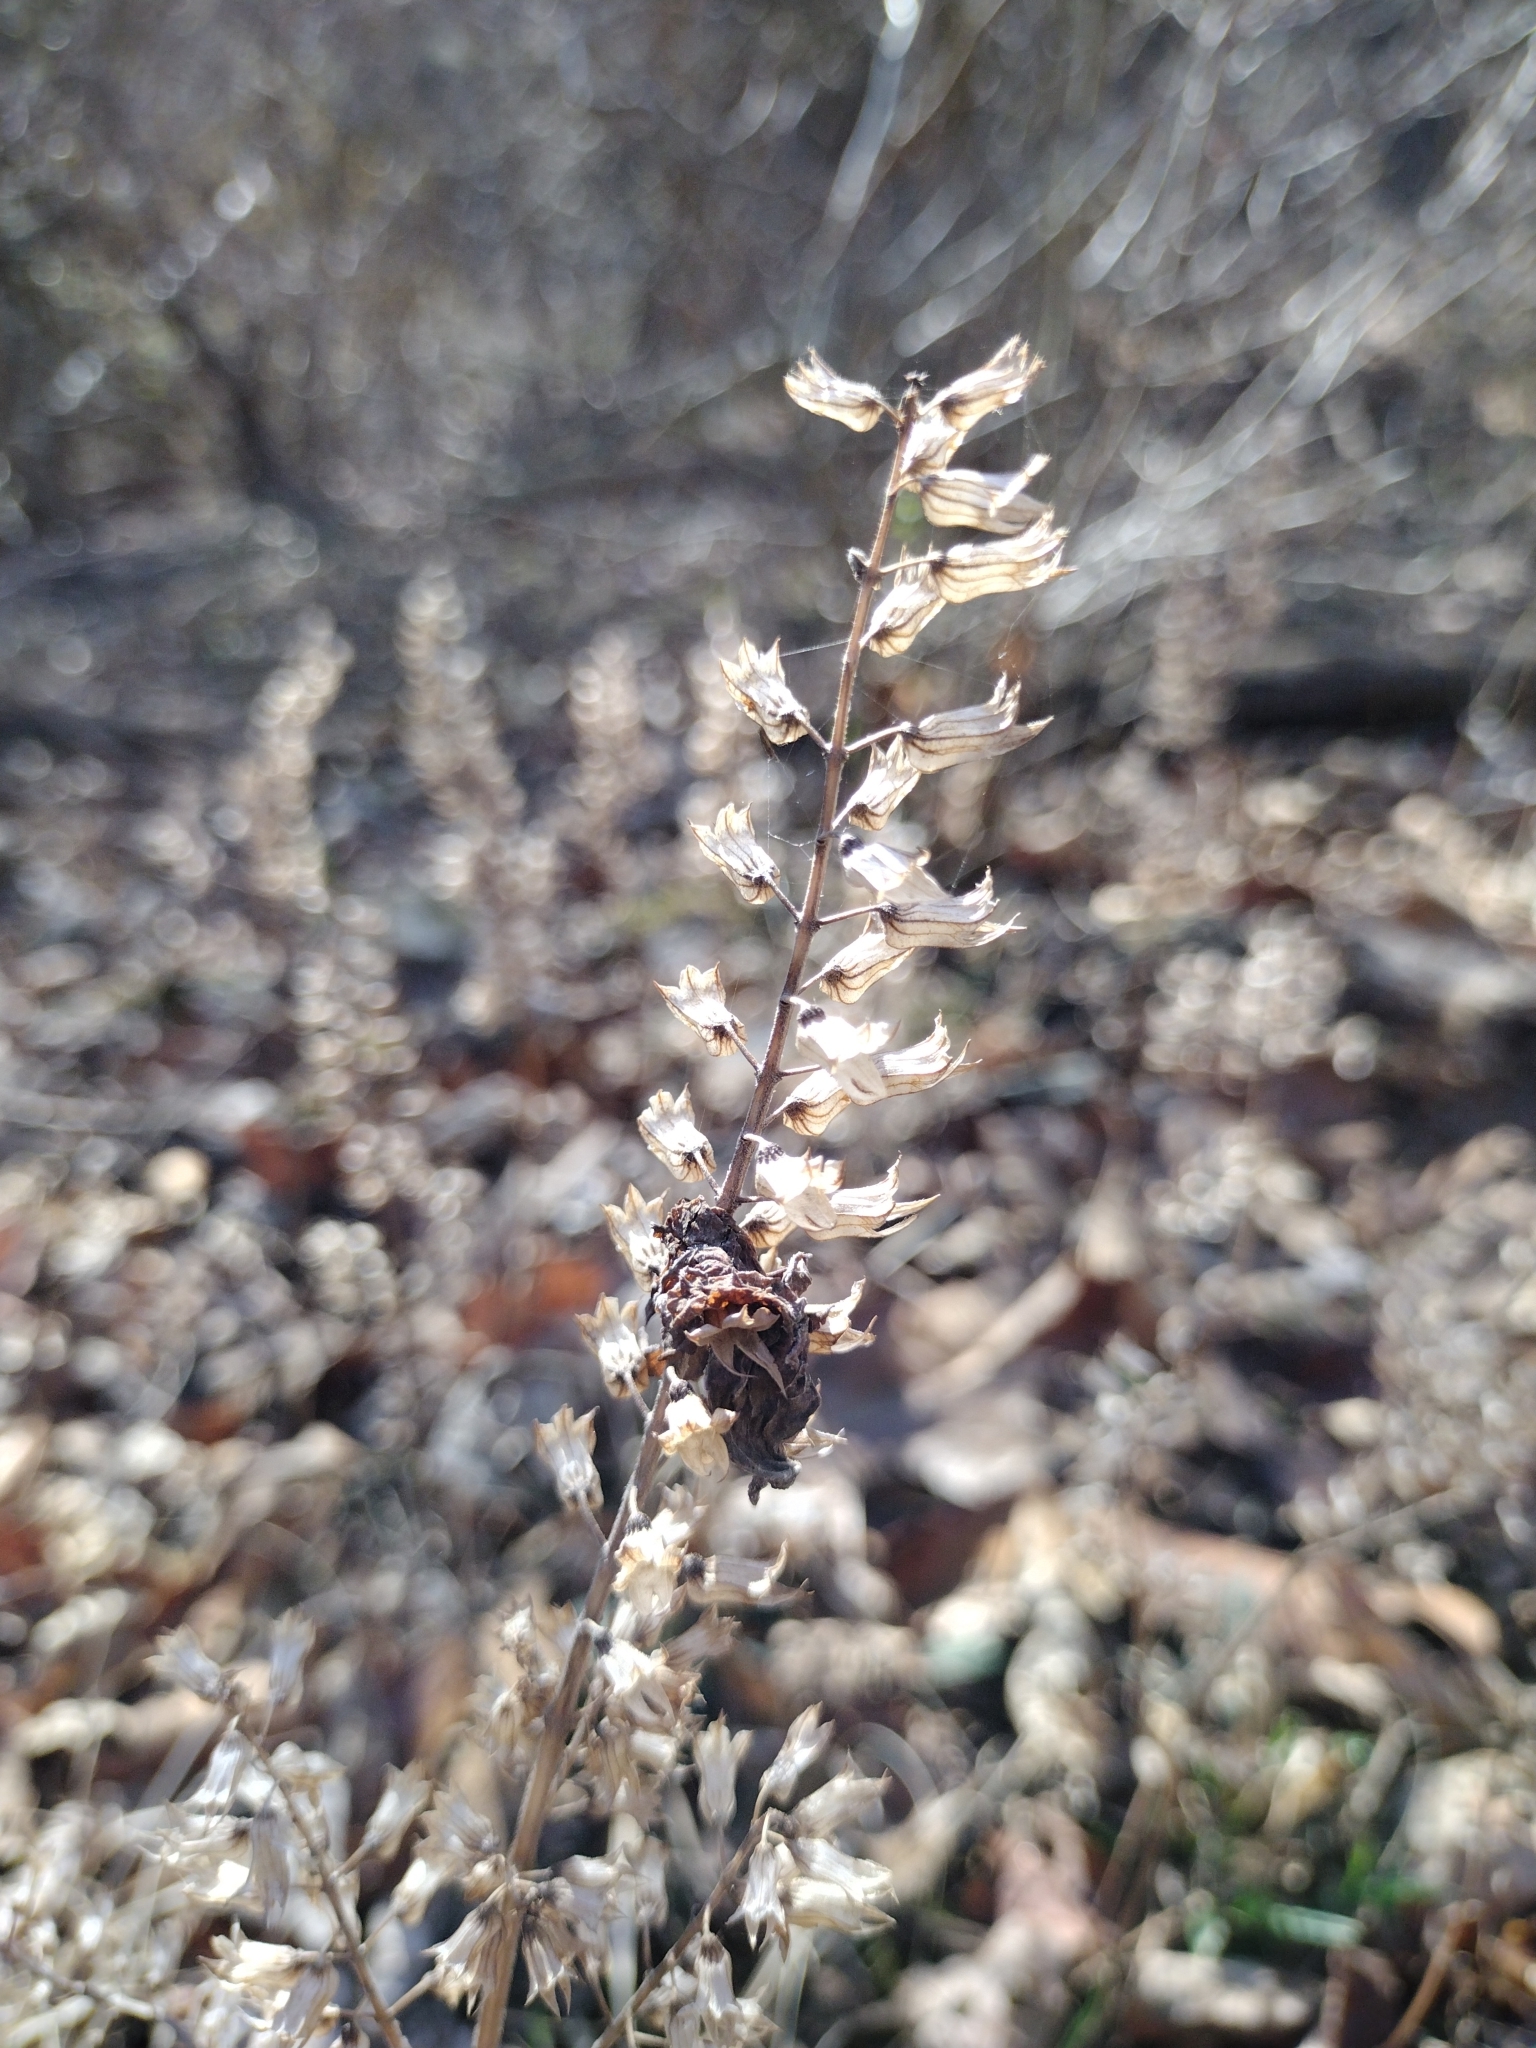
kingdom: Plantae
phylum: Tracheophyta
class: Magnoliopsida
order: Lamiales
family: Lamiaceae
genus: Perilla
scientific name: Perilla frutescens
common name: Perilla
